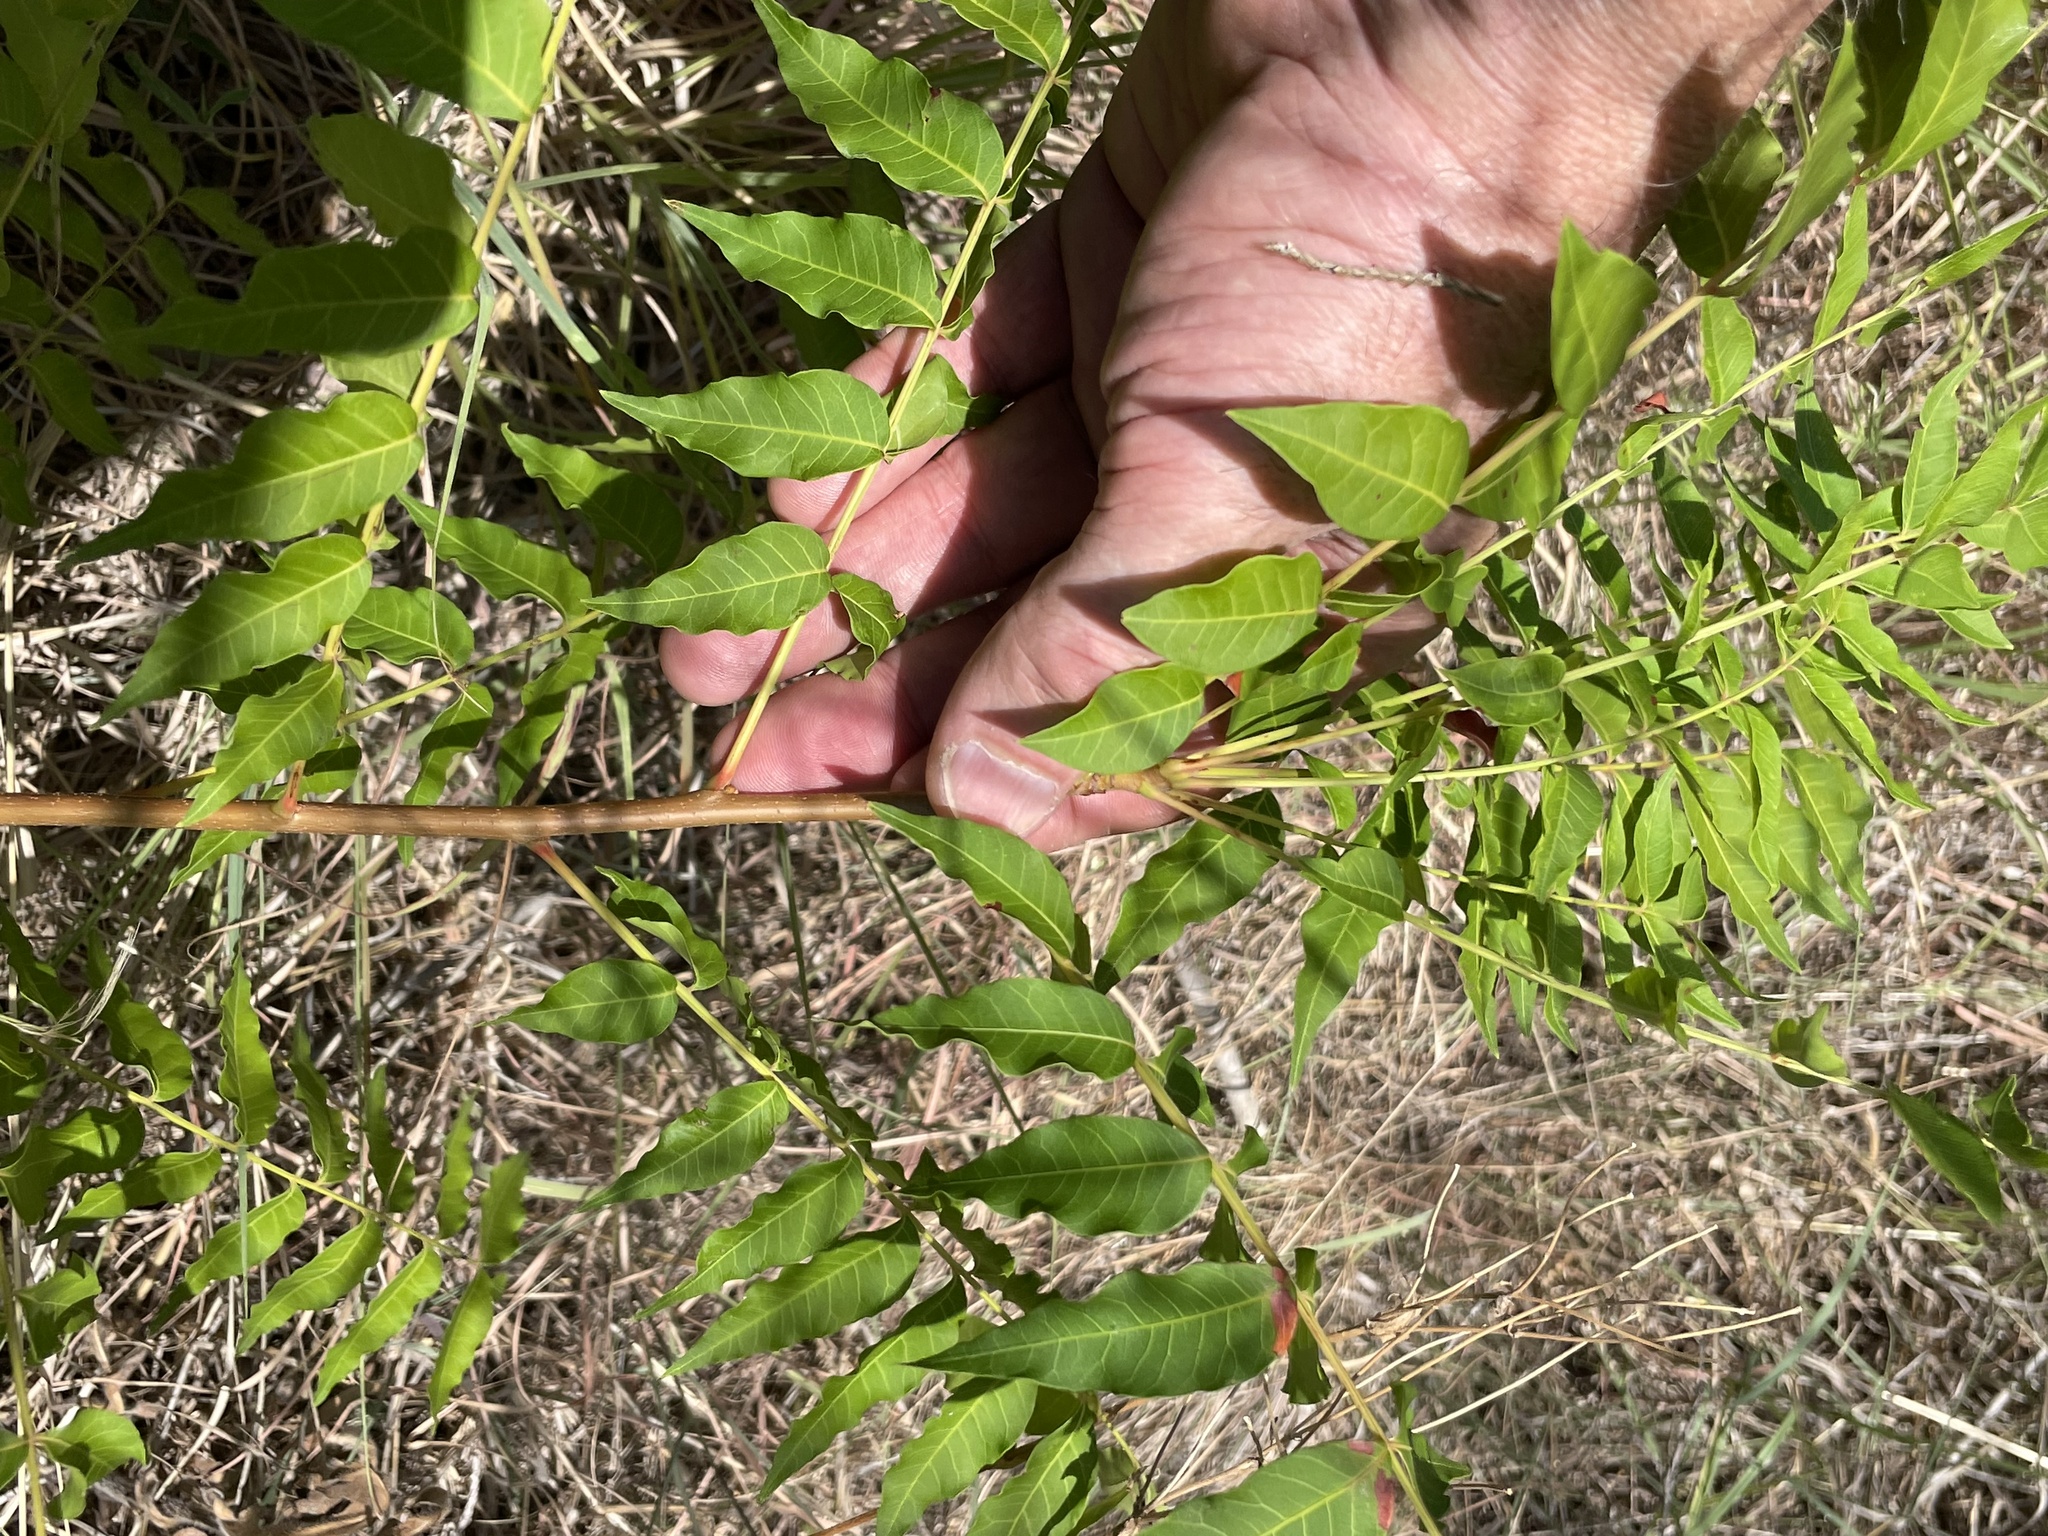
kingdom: Plantae
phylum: Tracheophyta
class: Magnoliopsida
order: Sapindales
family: Anacardiaceae
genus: Pistacia
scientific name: Pistacia chinensis
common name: Chinese pistache
